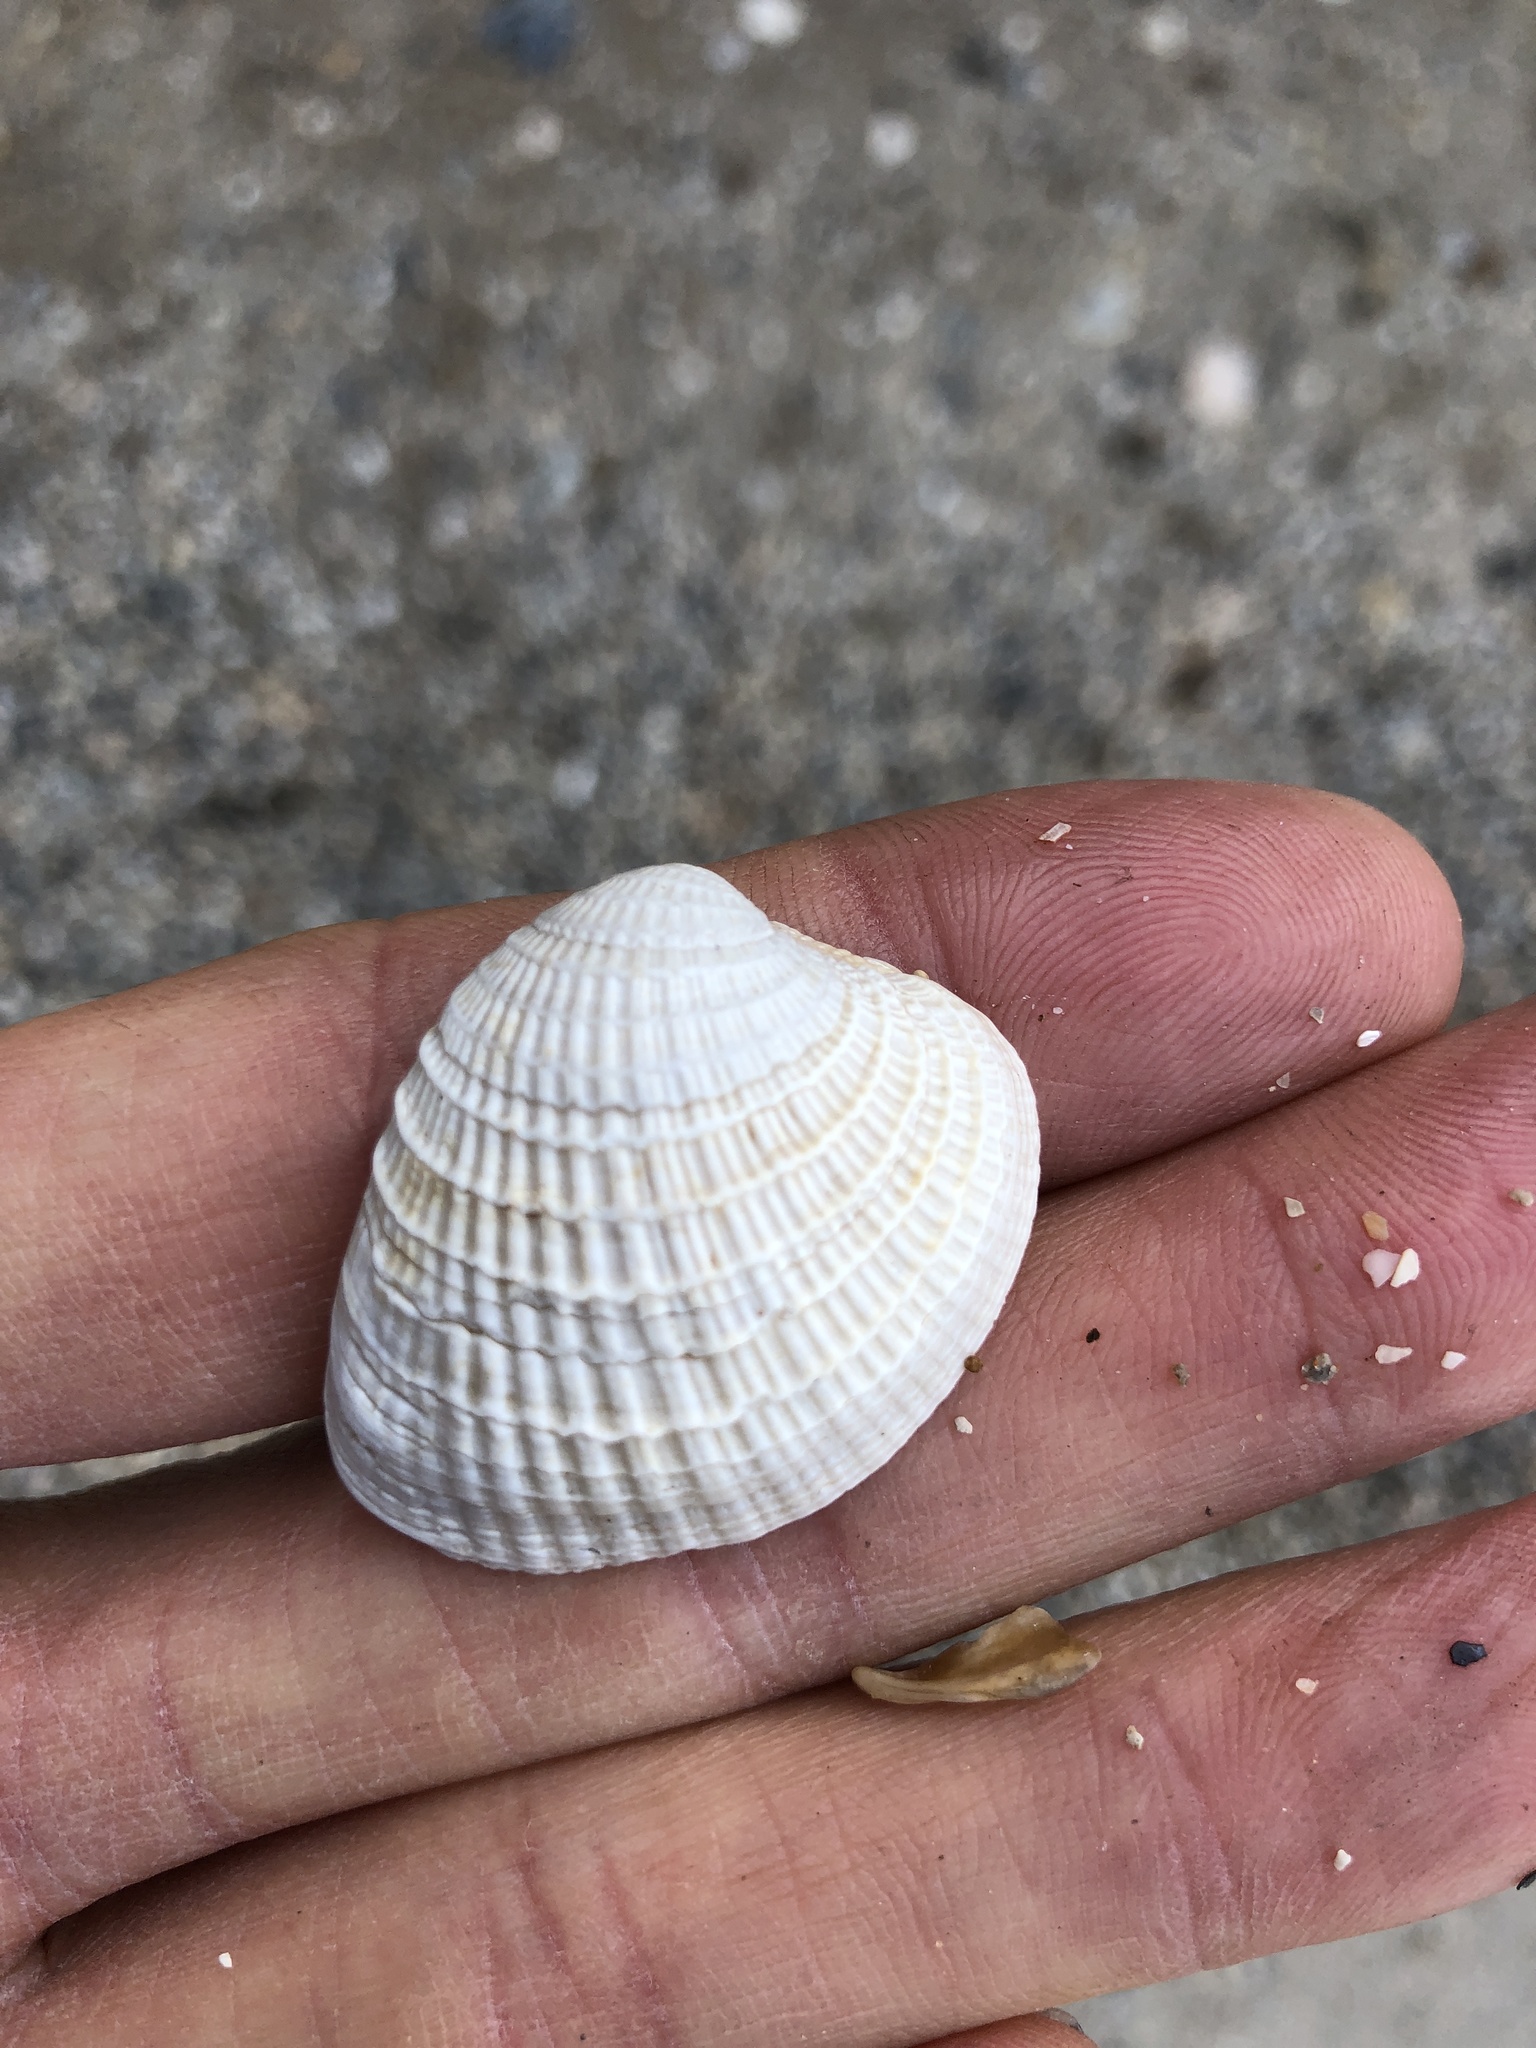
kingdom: Animalia
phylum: Mollusca
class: Bivalvia
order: Venerida
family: Veneridae
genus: Chione
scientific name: Chione elevata
